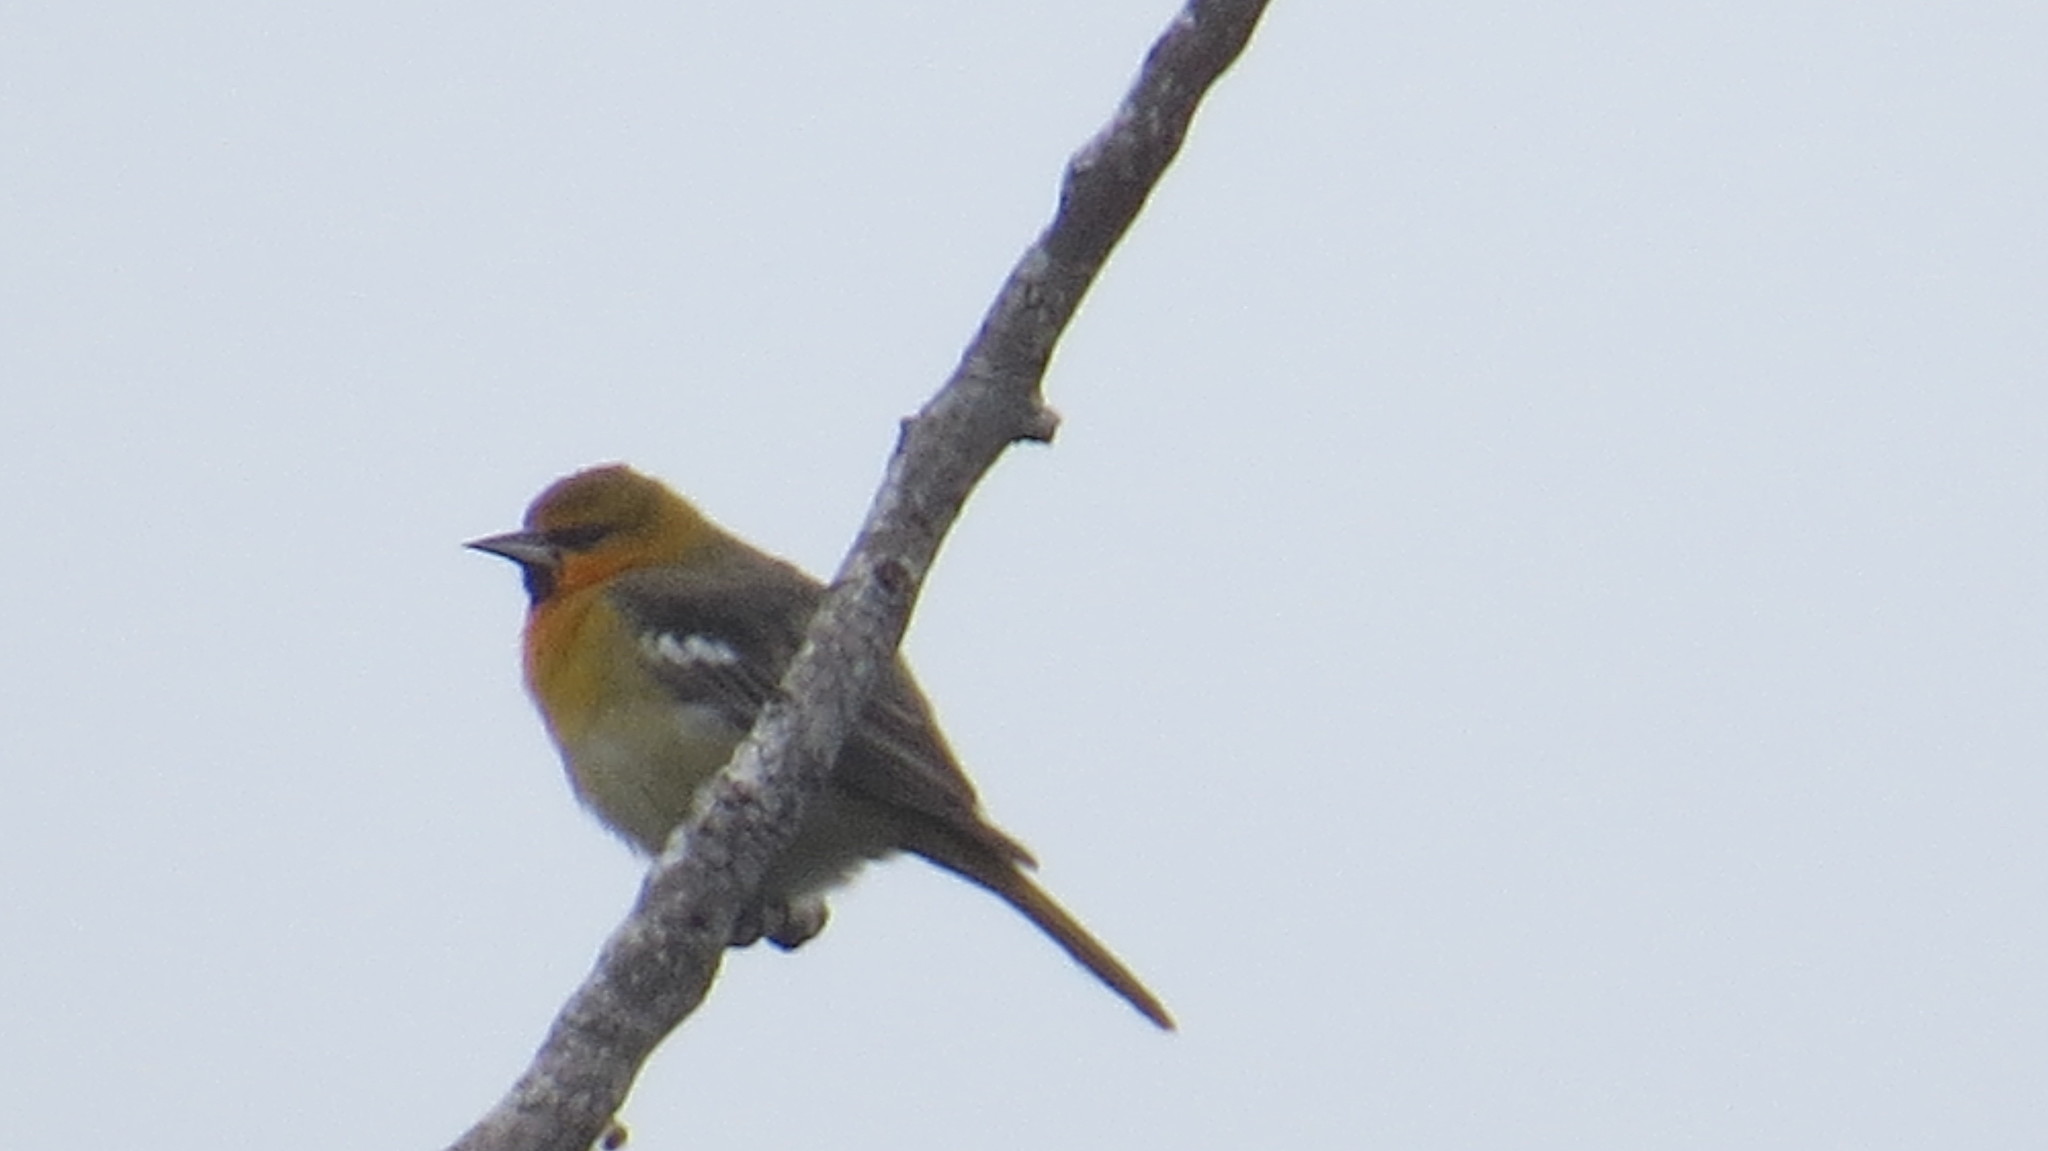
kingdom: Animalia
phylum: Chordata
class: Aves
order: Passeriformes
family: Icteridae
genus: Icterus
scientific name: Icterus bullockii
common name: Bullock's oriole
